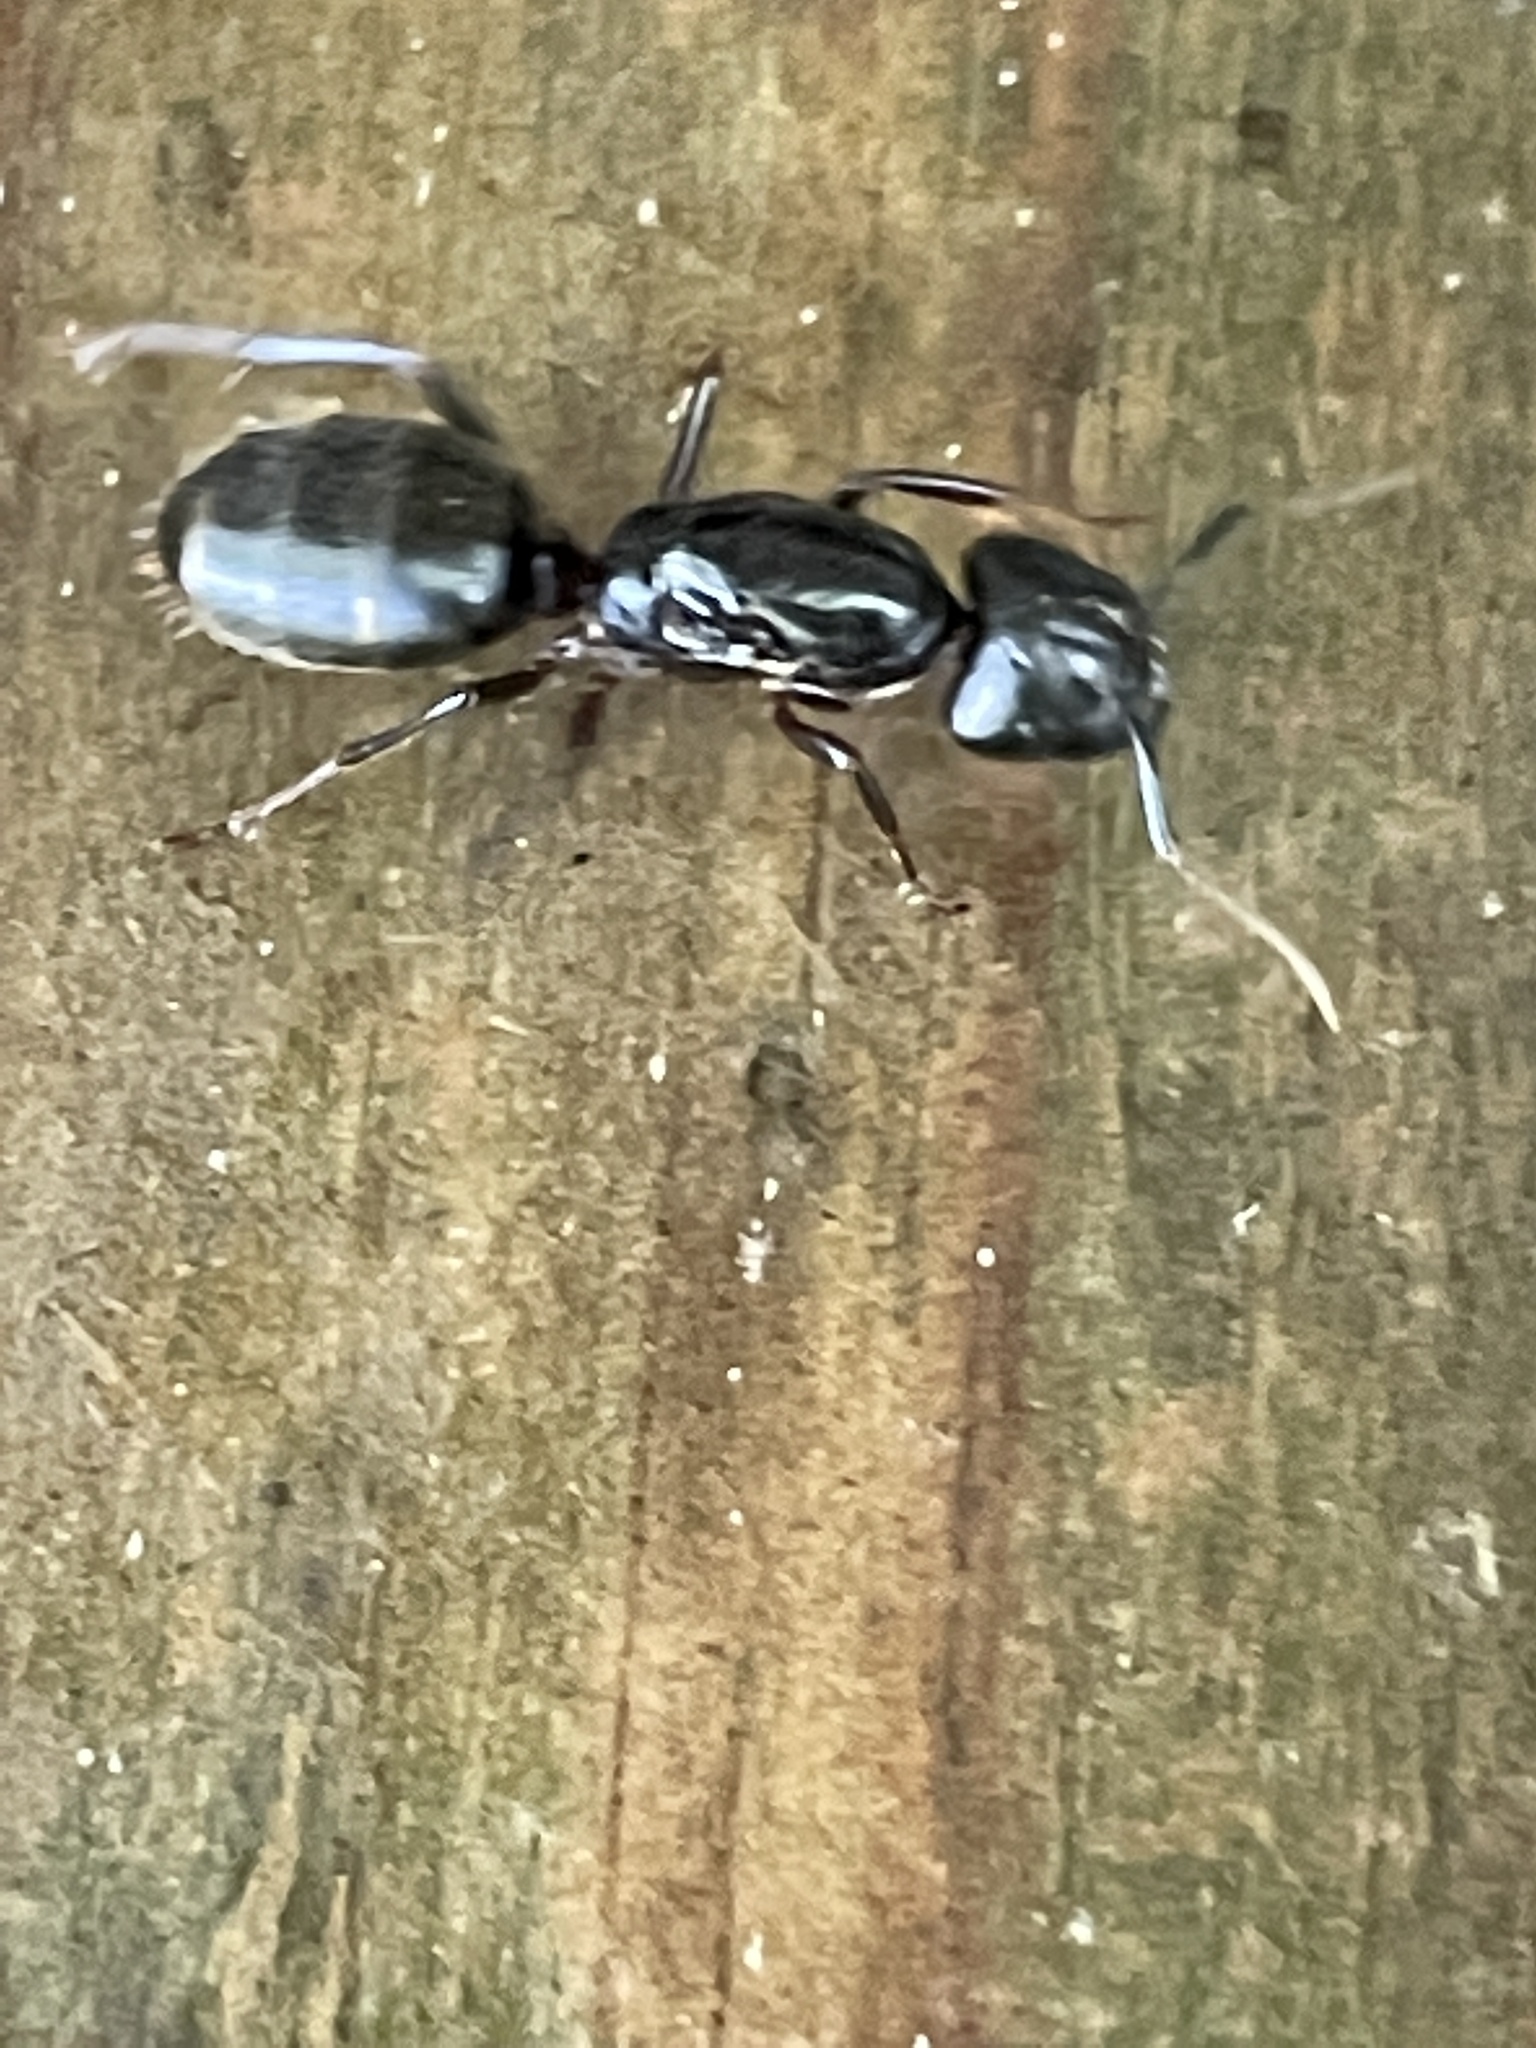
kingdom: Animalia
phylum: Arthropoda
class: Insecta
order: Hymenoptera
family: Formicidae
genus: Camponotus
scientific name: Camponotus pennsylvanicus
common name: Black carpenter ant
